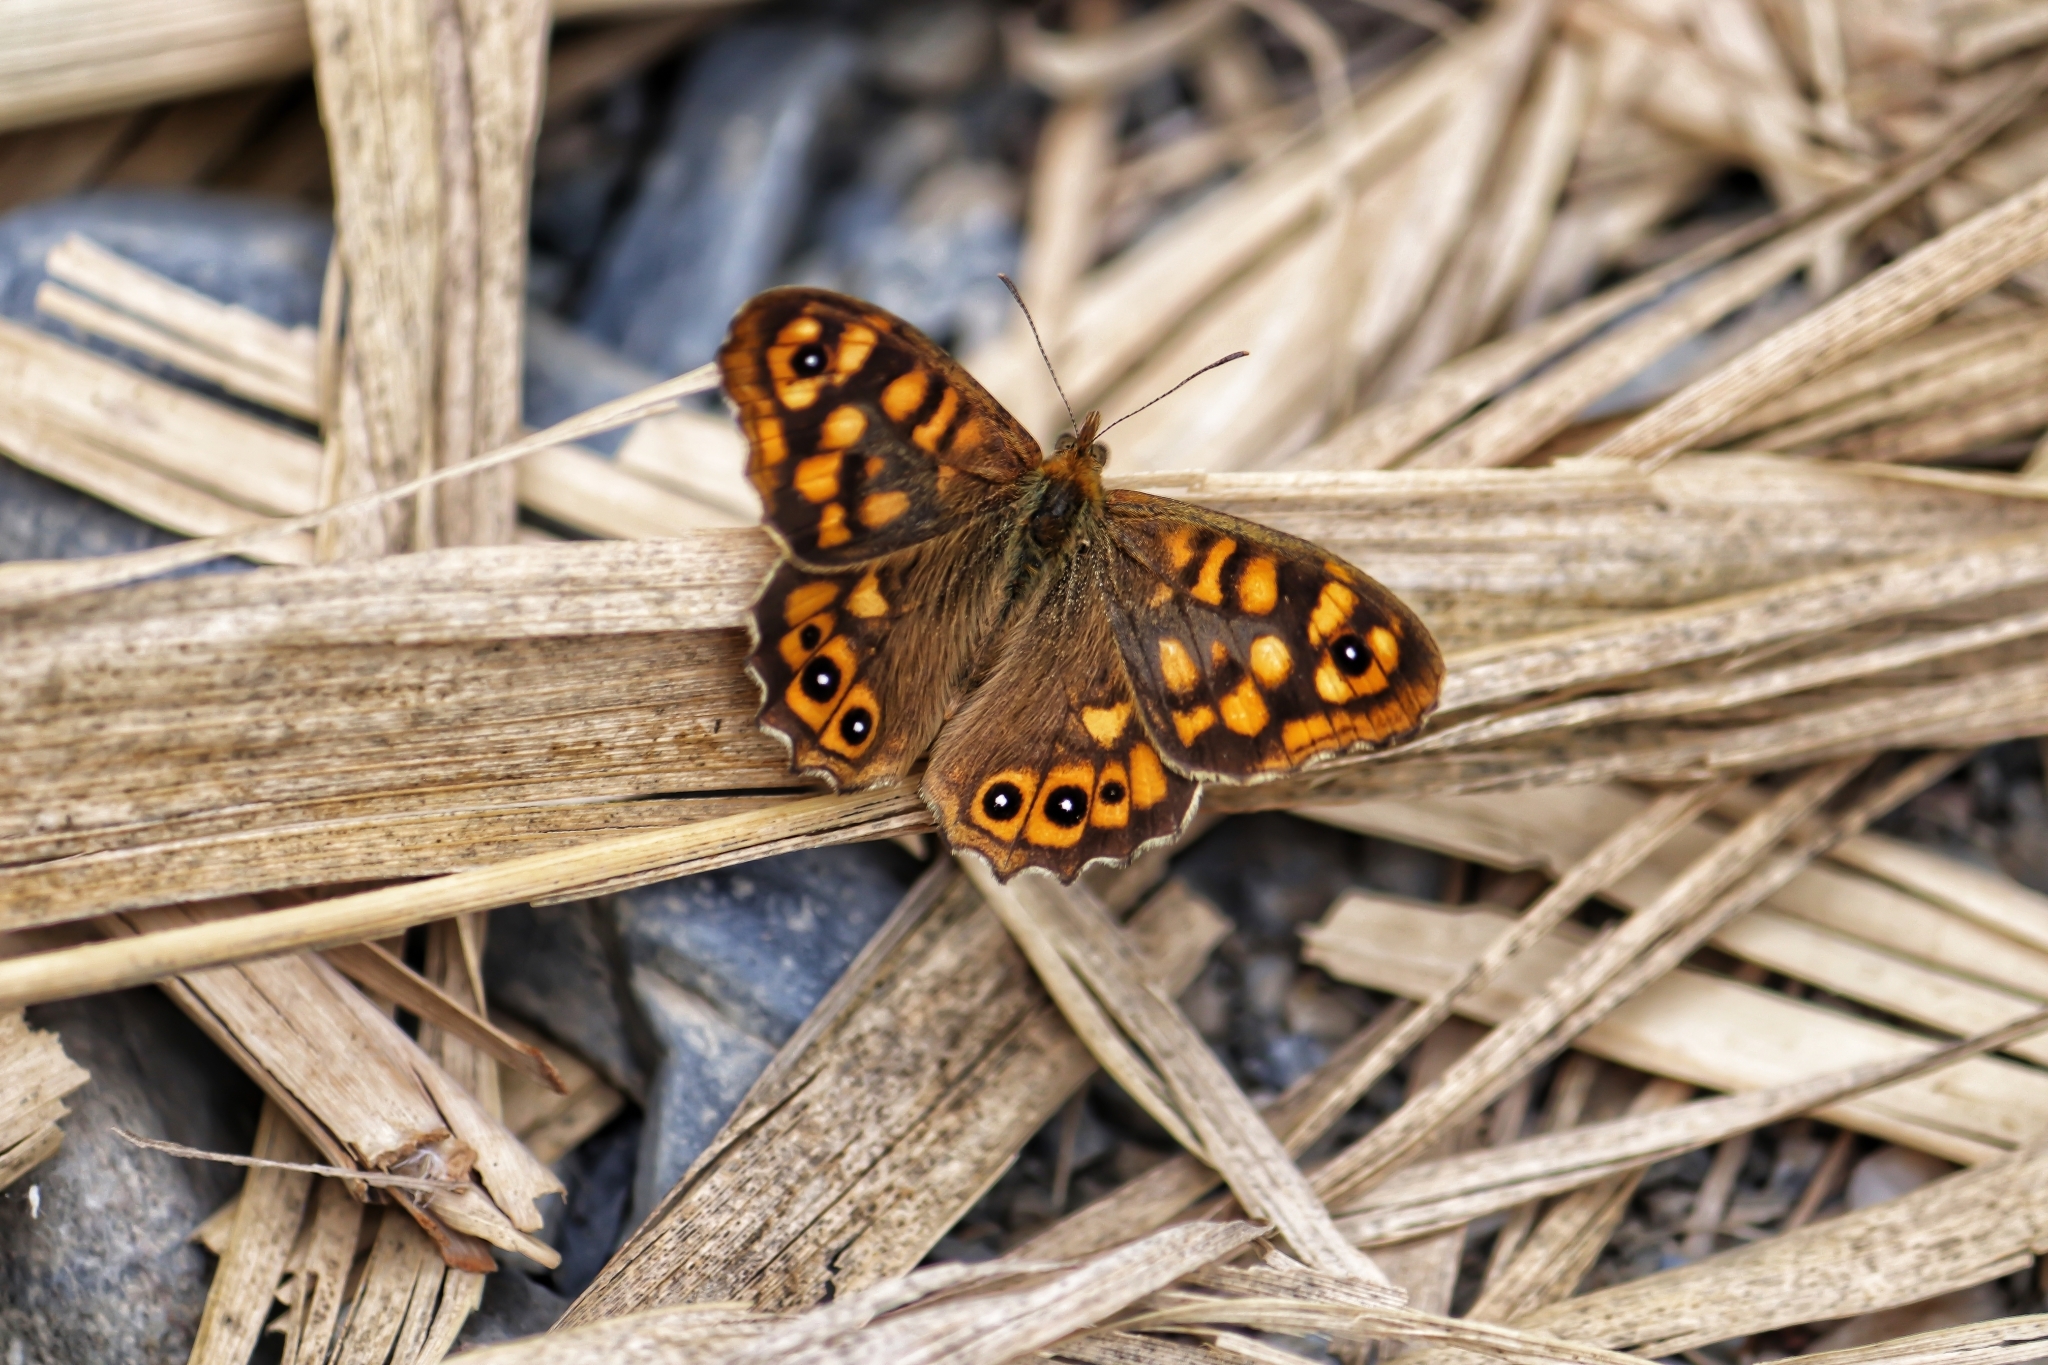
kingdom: Animalia
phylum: Arthropoda
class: Insecta
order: Lepidoptera
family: Nymphalidae
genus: Pararge
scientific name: Pararge aegeria
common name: Speckled wood
